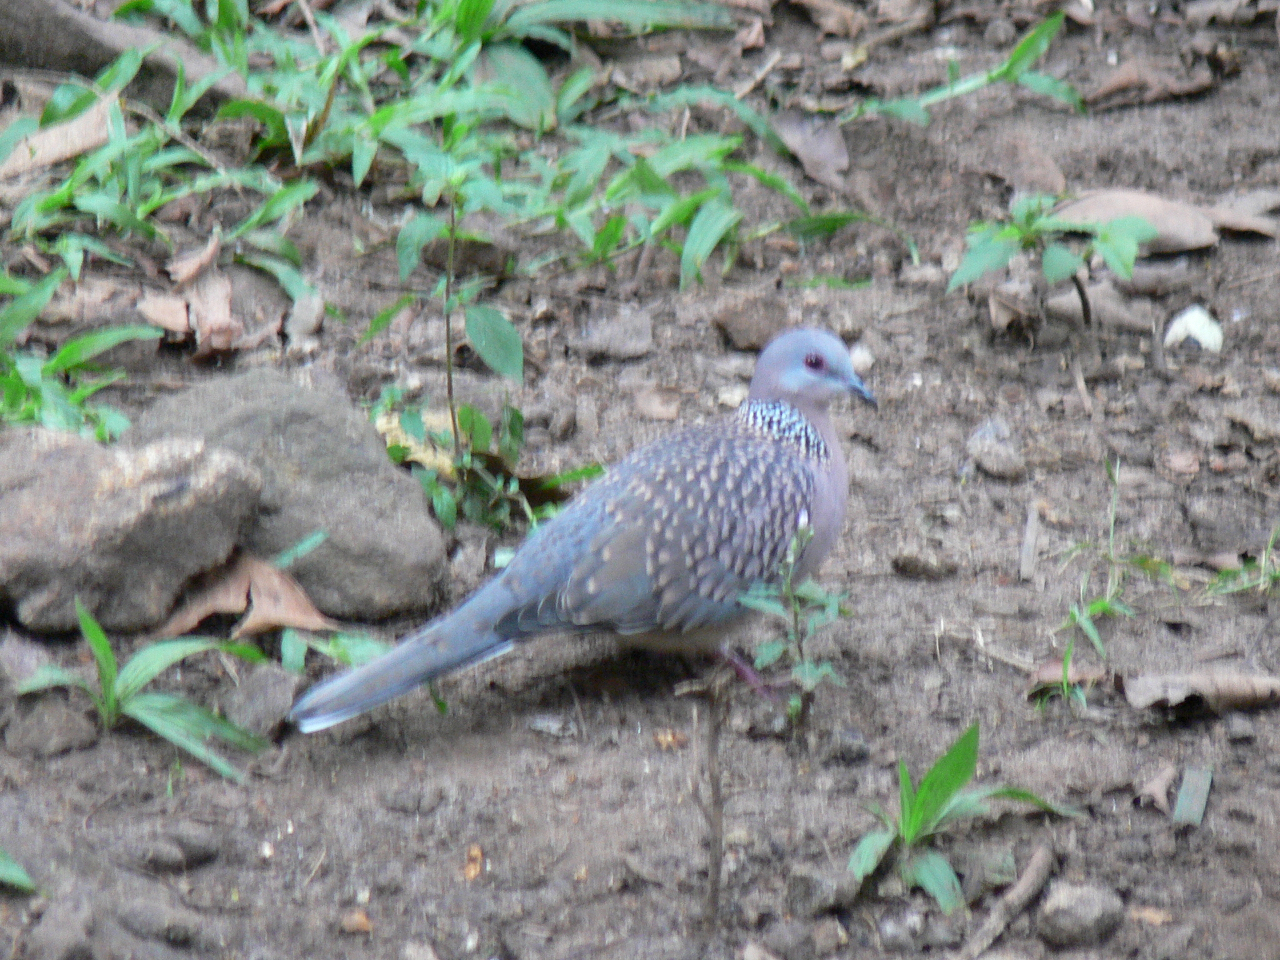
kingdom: Animalia
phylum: Chordata
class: Aves
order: Columbiformes
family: Columbidae
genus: Spilopelia
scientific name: Spilopelia chinensis
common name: Spotted dove
